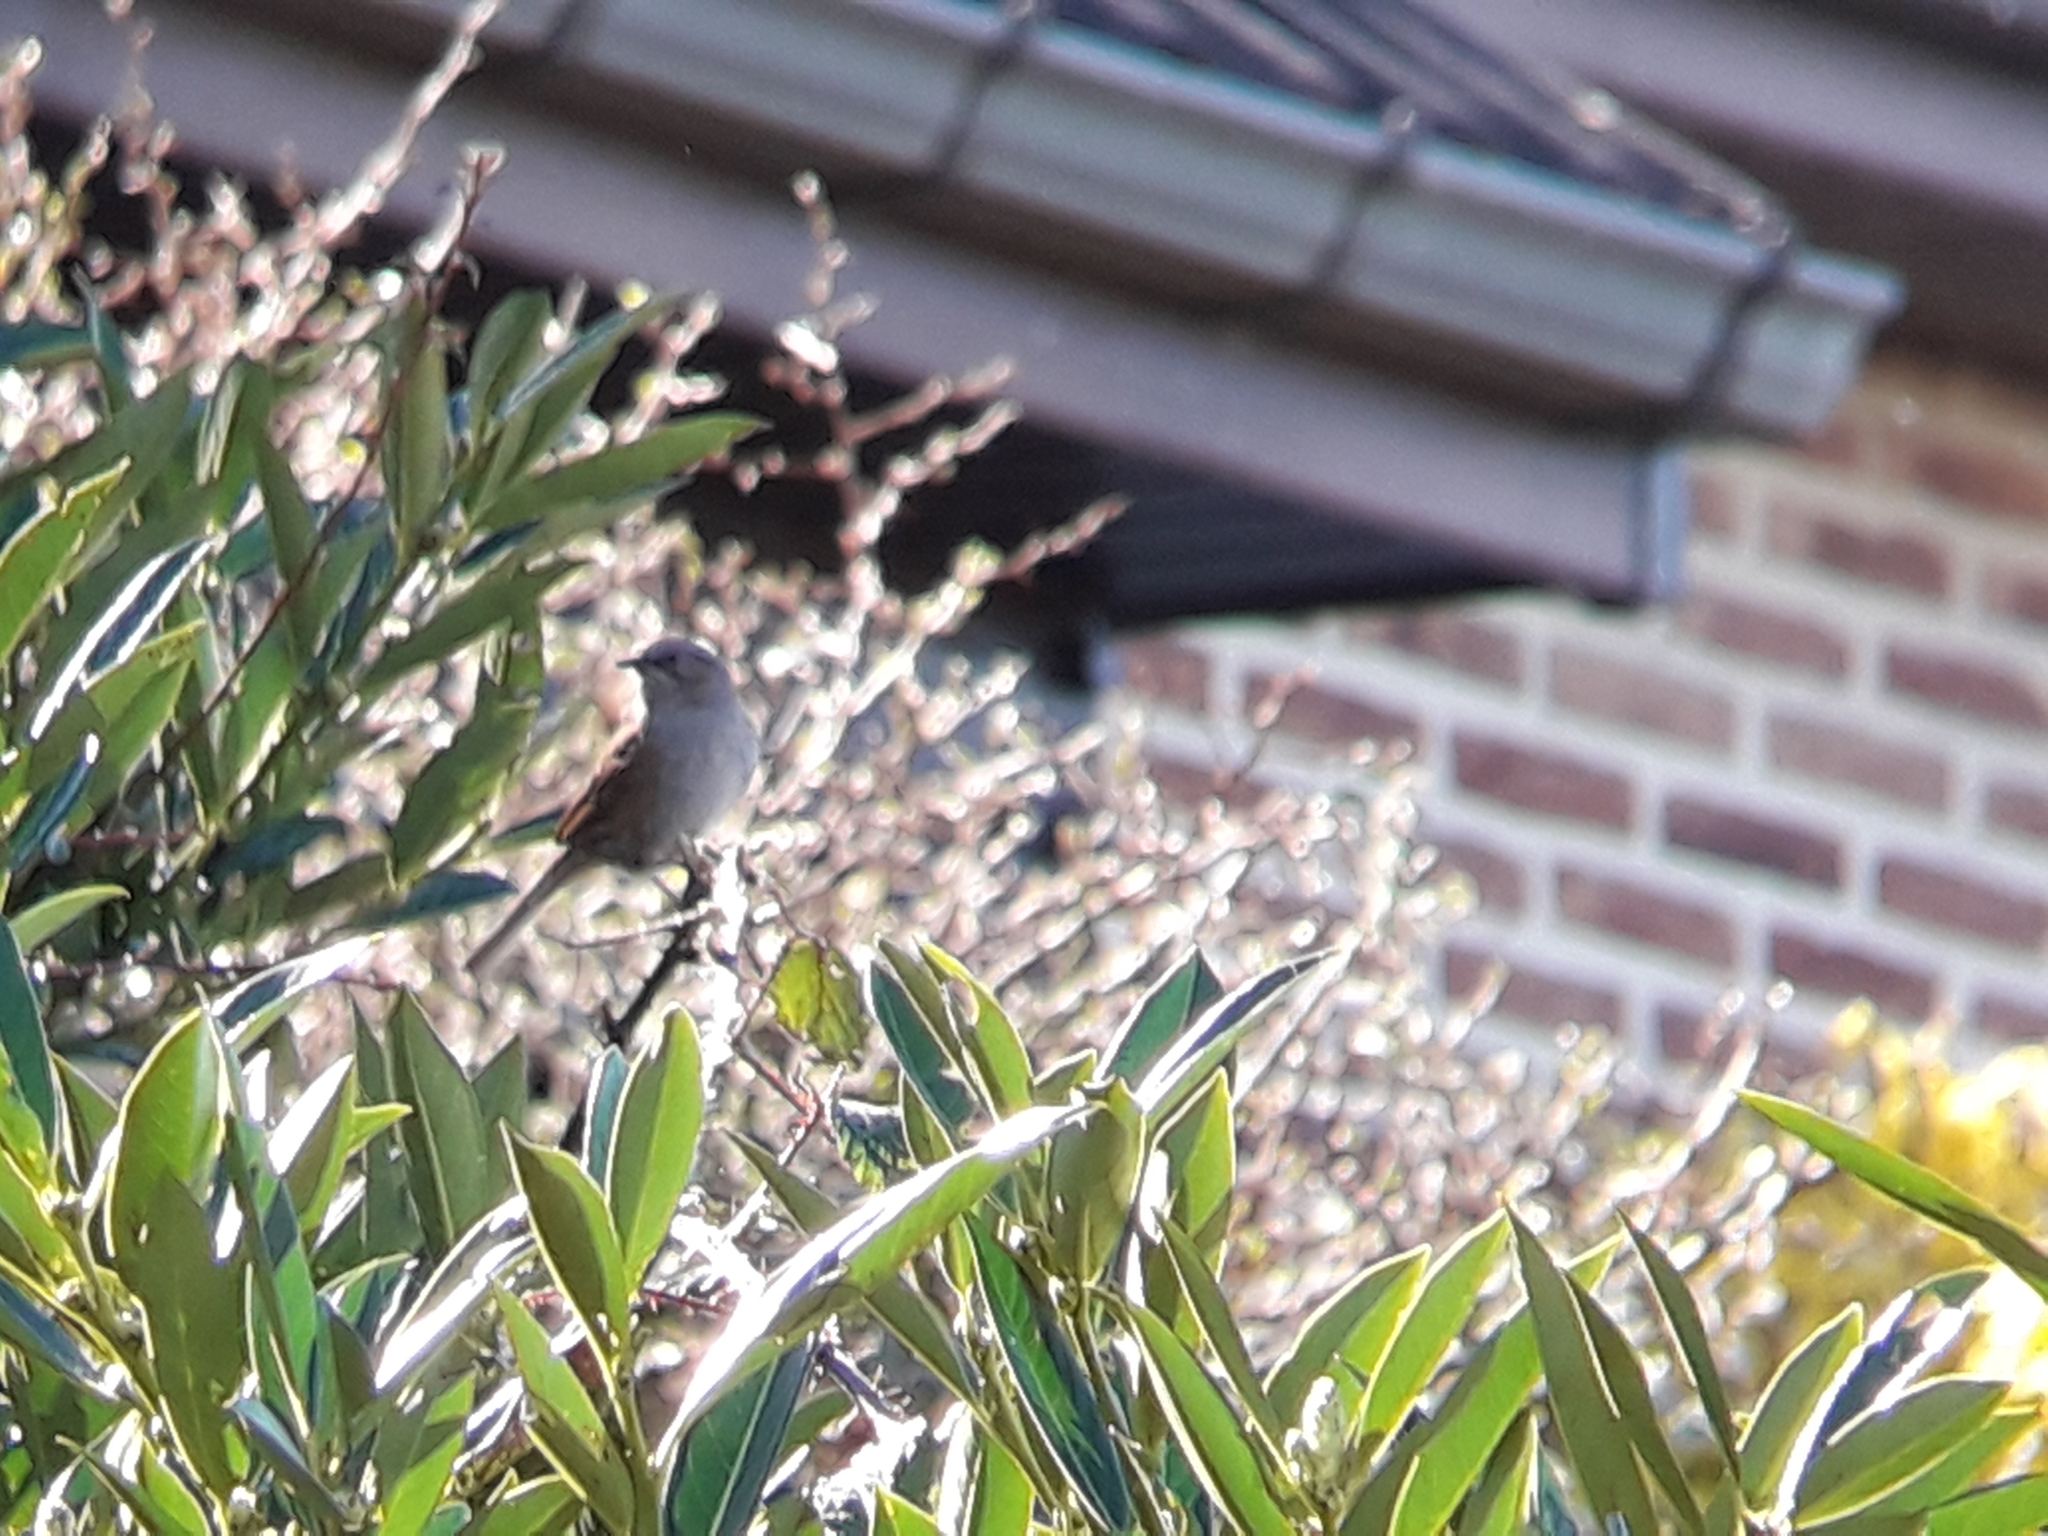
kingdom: Animalia
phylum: Chordata
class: Aves
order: Passeriformes
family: Prunellidae
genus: Prunella
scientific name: Prunella modularis
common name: Dunnock
